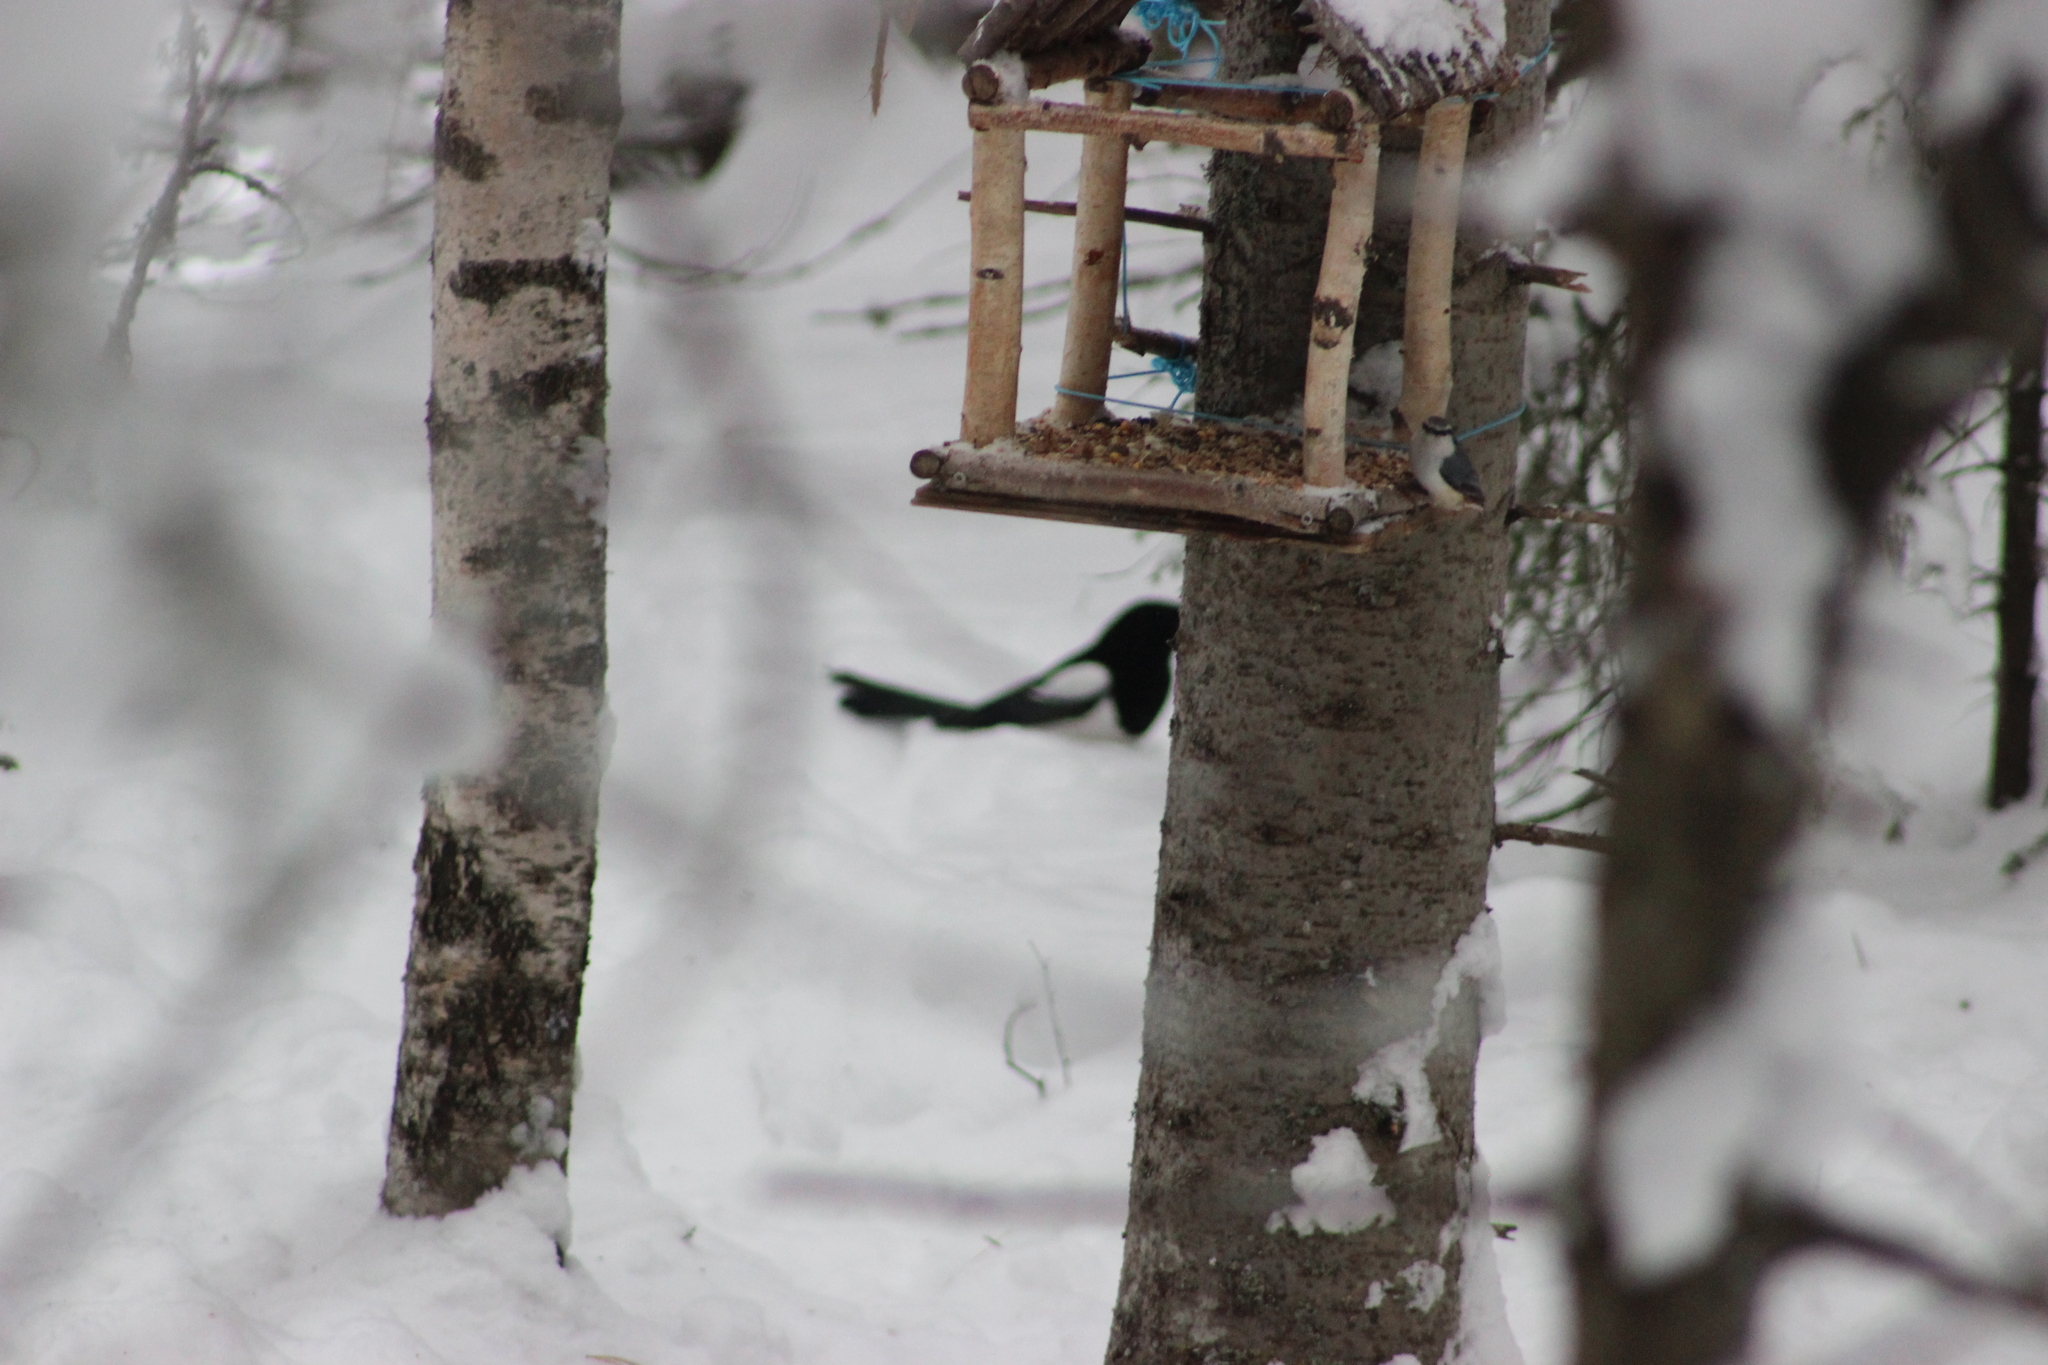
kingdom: Animalia
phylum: Chordata
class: Aves
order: Passeriformes
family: Corvidae
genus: Pica
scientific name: Pica pica
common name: Eurasian magpie
